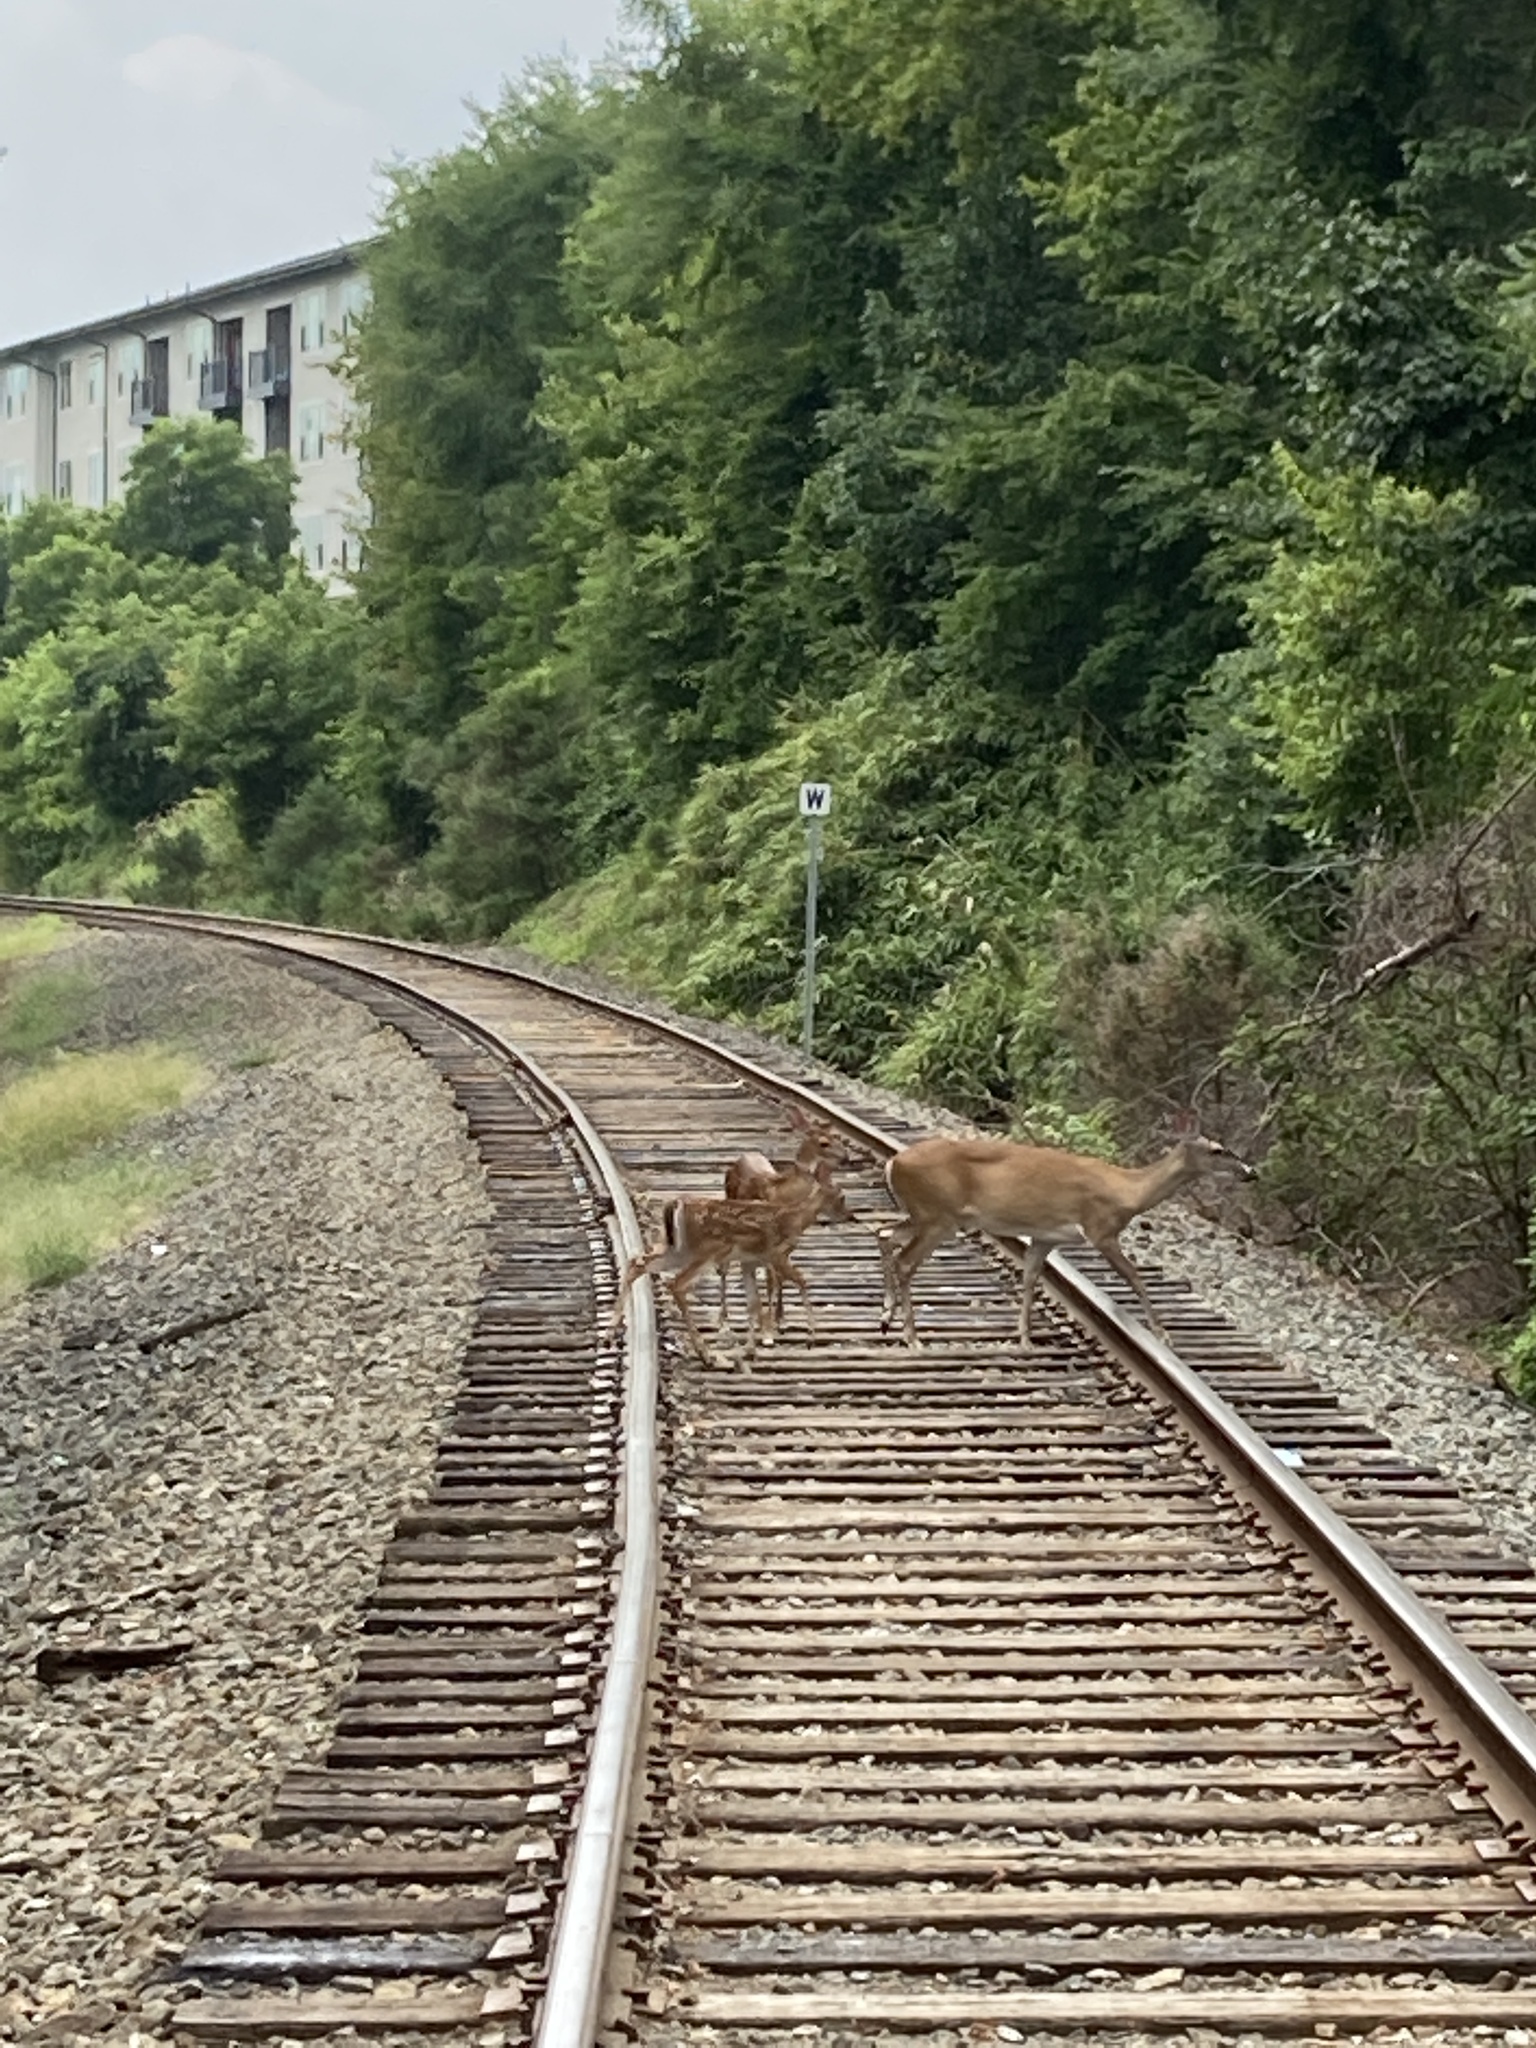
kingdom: Animalia
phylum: Chordata
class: Mammalia
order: Artiodactyla
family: Cervidae
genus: Odocoileus
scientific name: Odocoileus virginianus
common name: White-tailed deer
